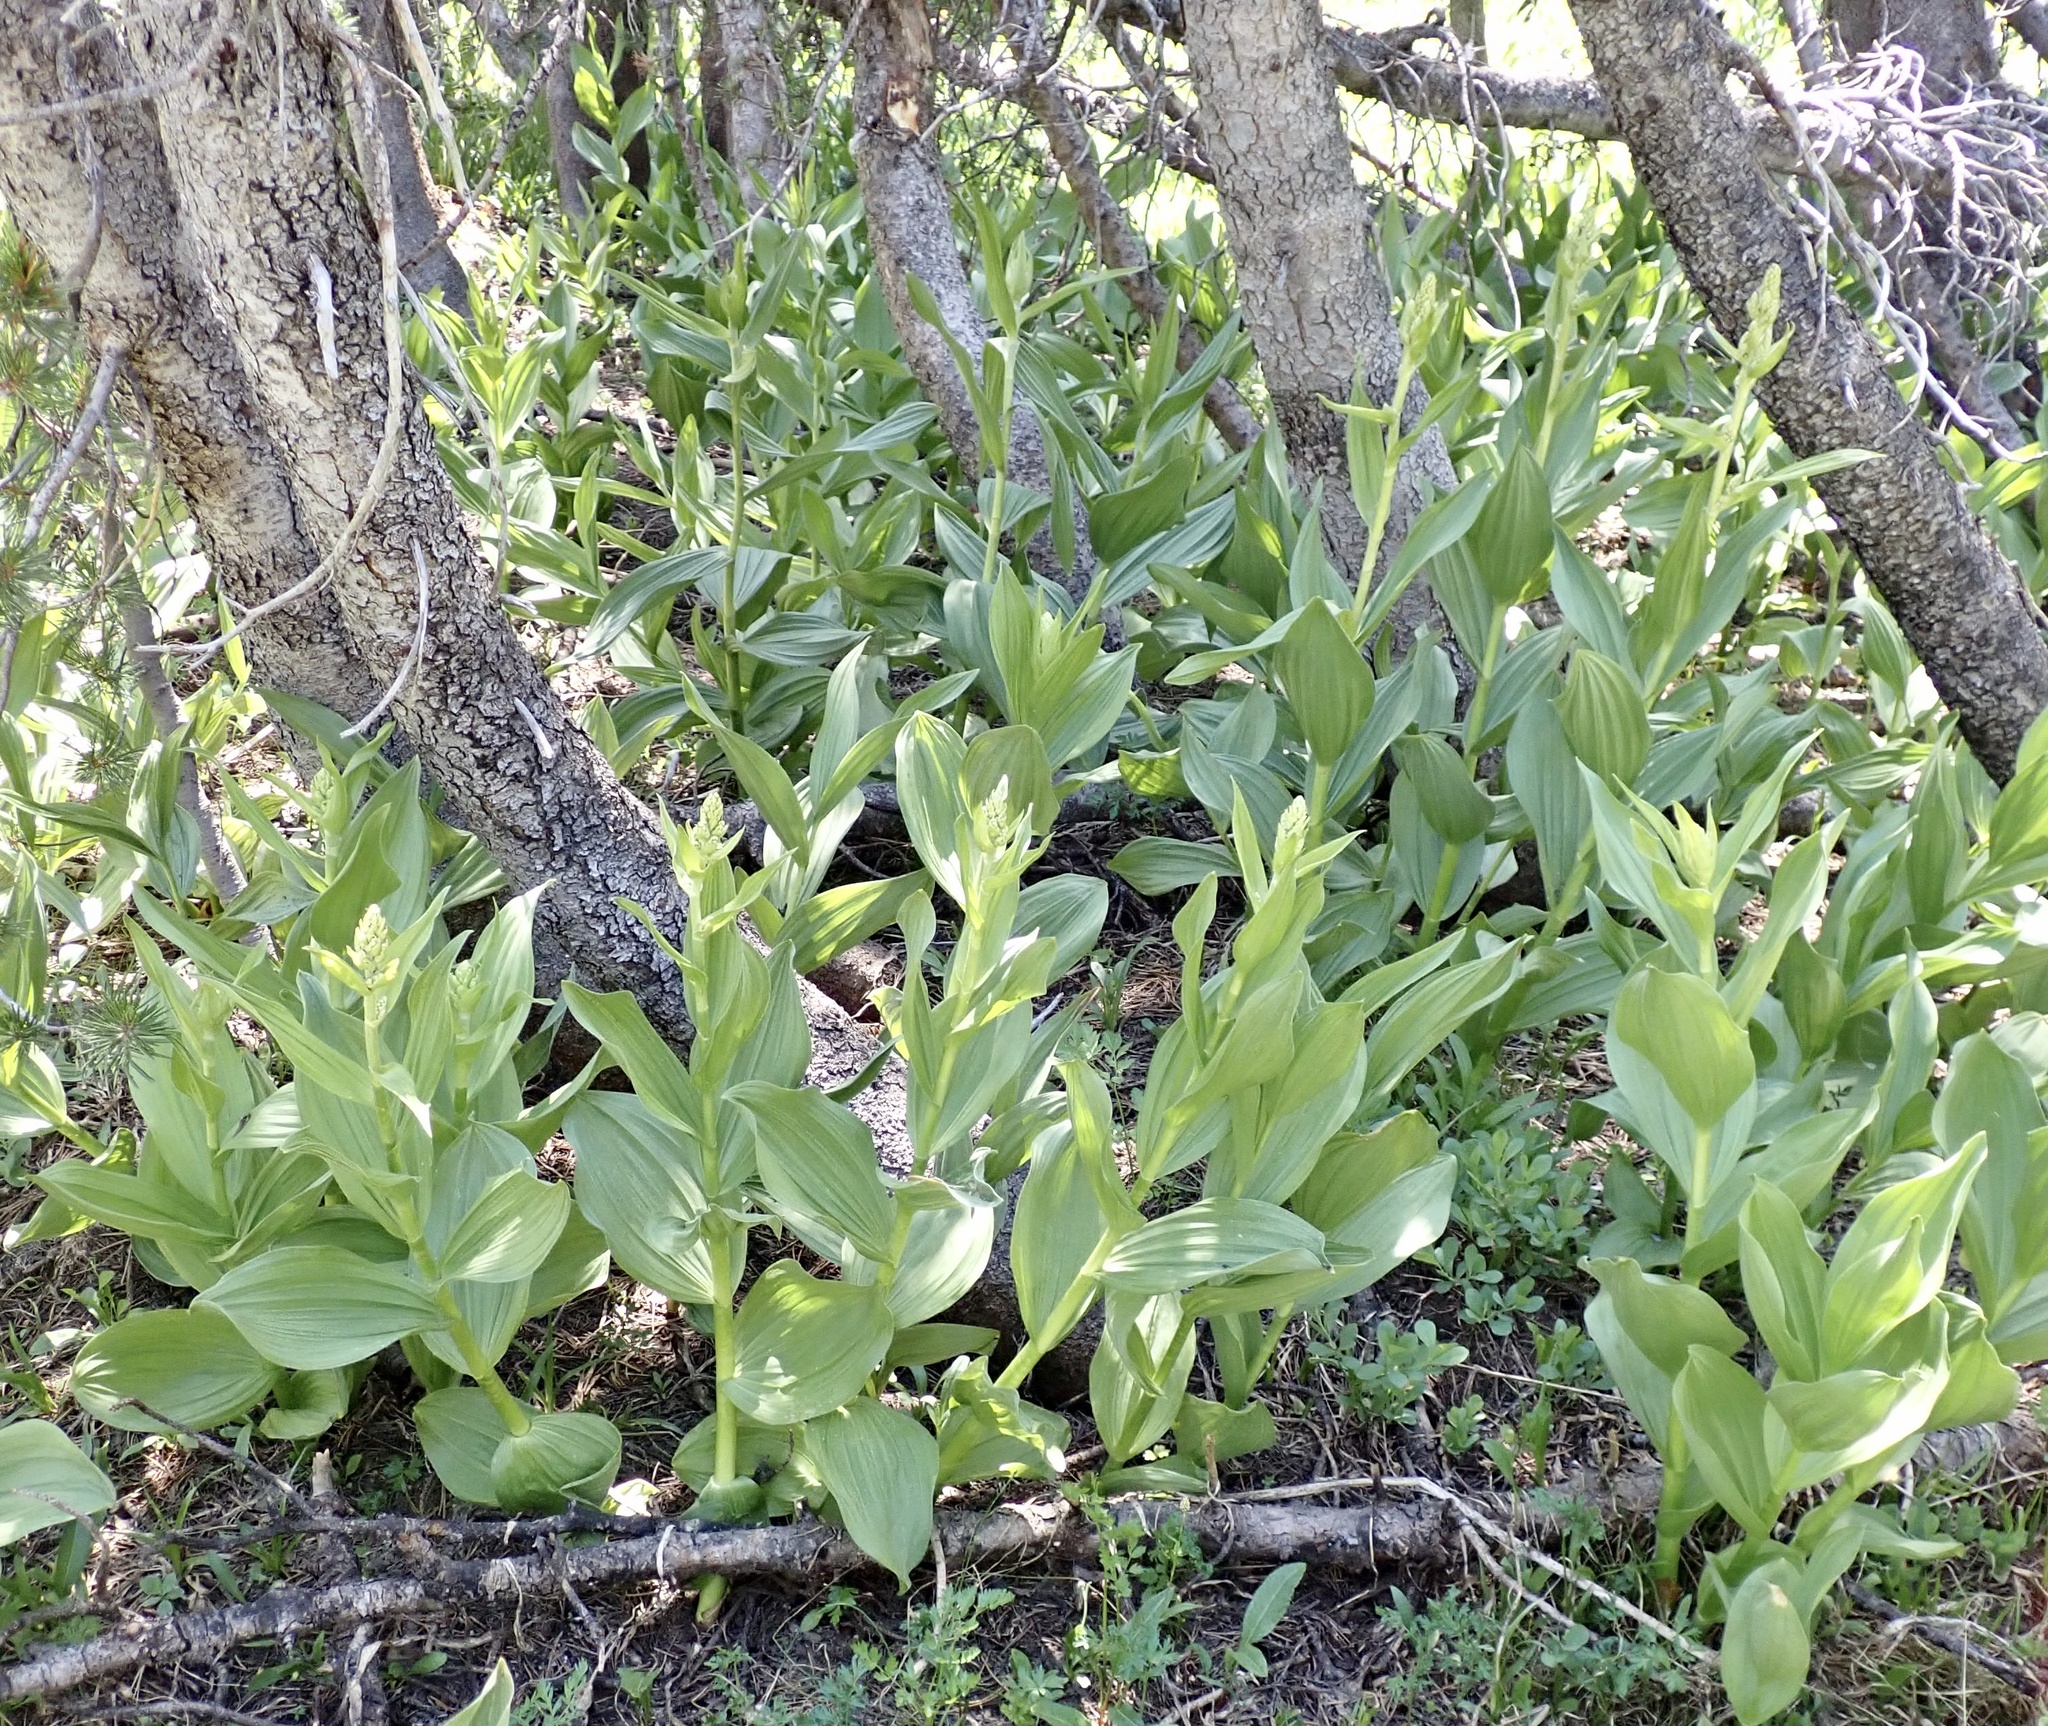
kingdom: Plantae
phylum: Tracheophyta
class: Liliopsida
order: Liliales
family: Melanthiaceae
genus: Veratrum
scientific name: Veratrum californicum
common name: California veratrum
